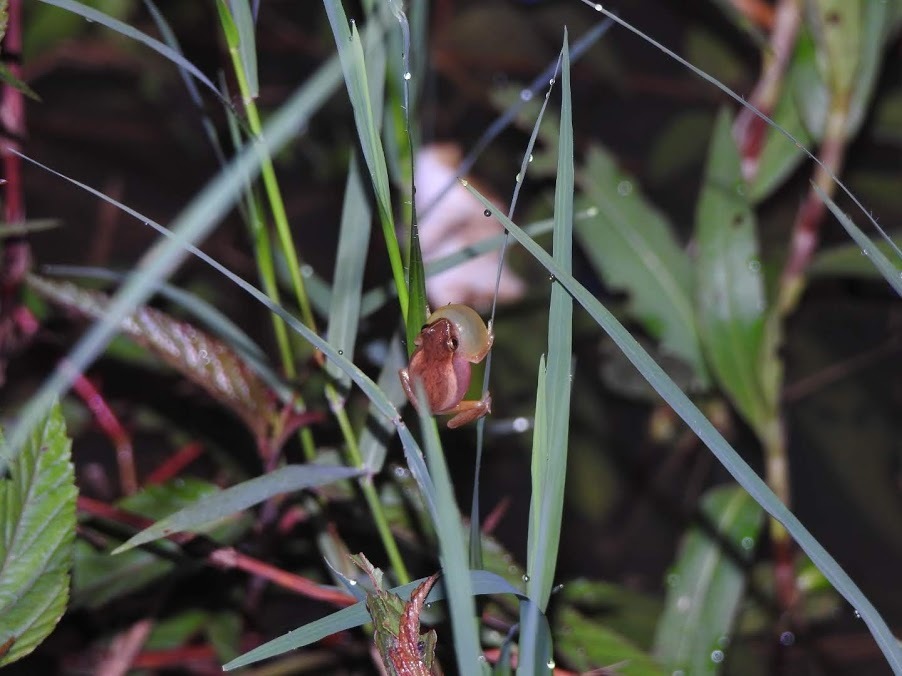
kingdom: Animalia
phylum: Chordata
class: Amphibia
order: Anura
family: Hylidae
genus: Dendropsophus
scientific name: Dendropsophus nanus
